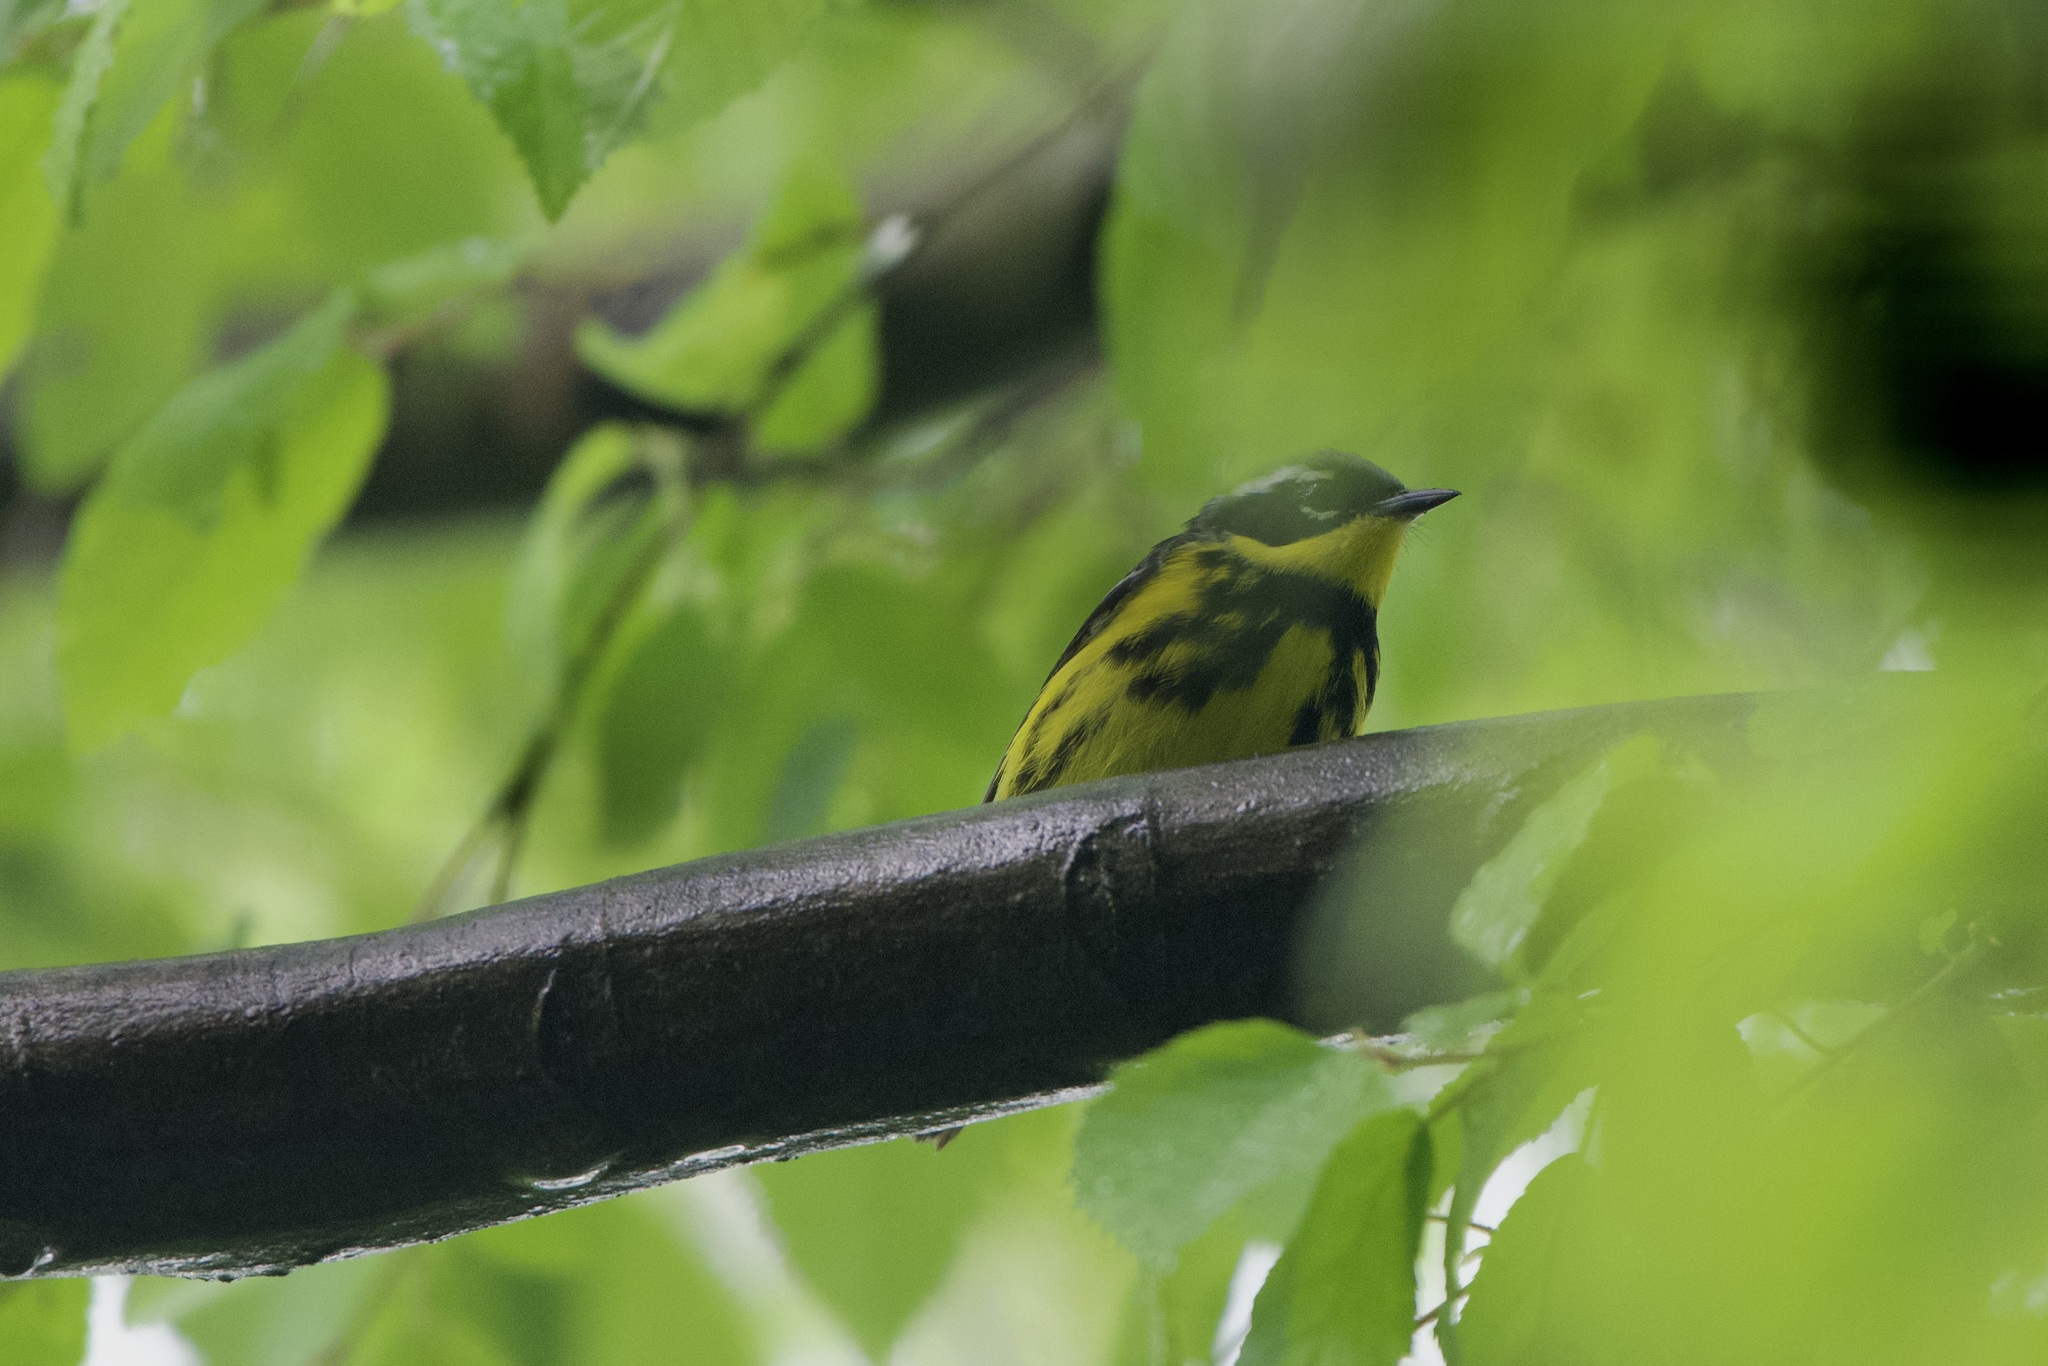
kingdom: Animalia
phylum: Chordata
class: Aves
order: Passeriformes
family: Parulidae
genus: Setophaga
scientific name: Setophaga magnolia
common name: Magnolia warbler
